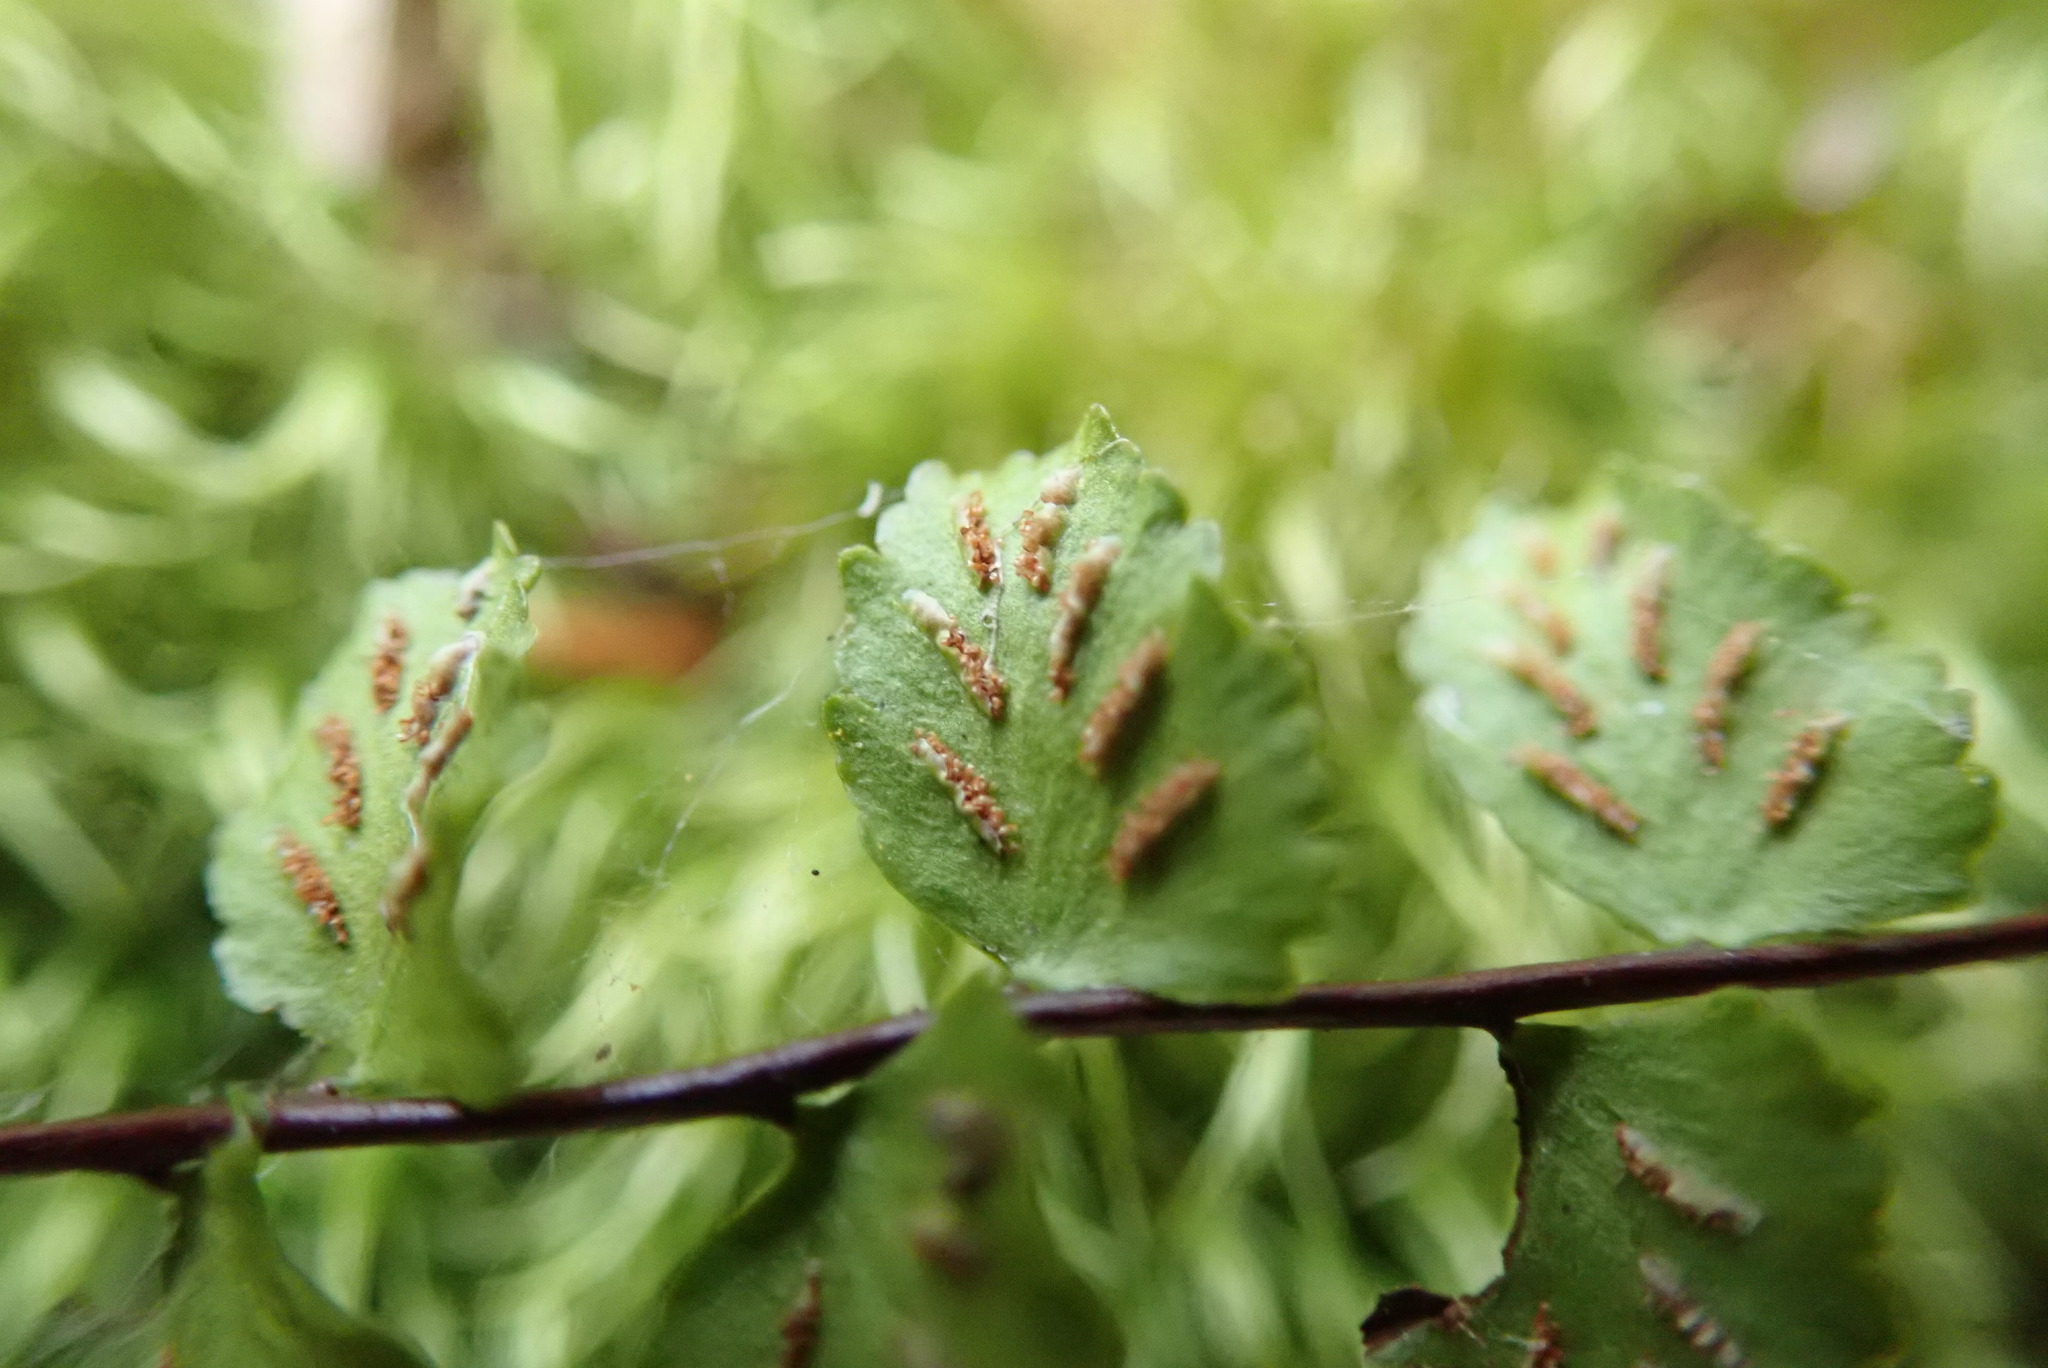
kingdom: Plantae
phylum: Tracheophyta
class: Polypodiopsida
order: Polypodiales
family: Aspleniaceae
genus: Asplenium
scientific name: Asplenium trichomanes
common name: Maidenhair spleenwort
